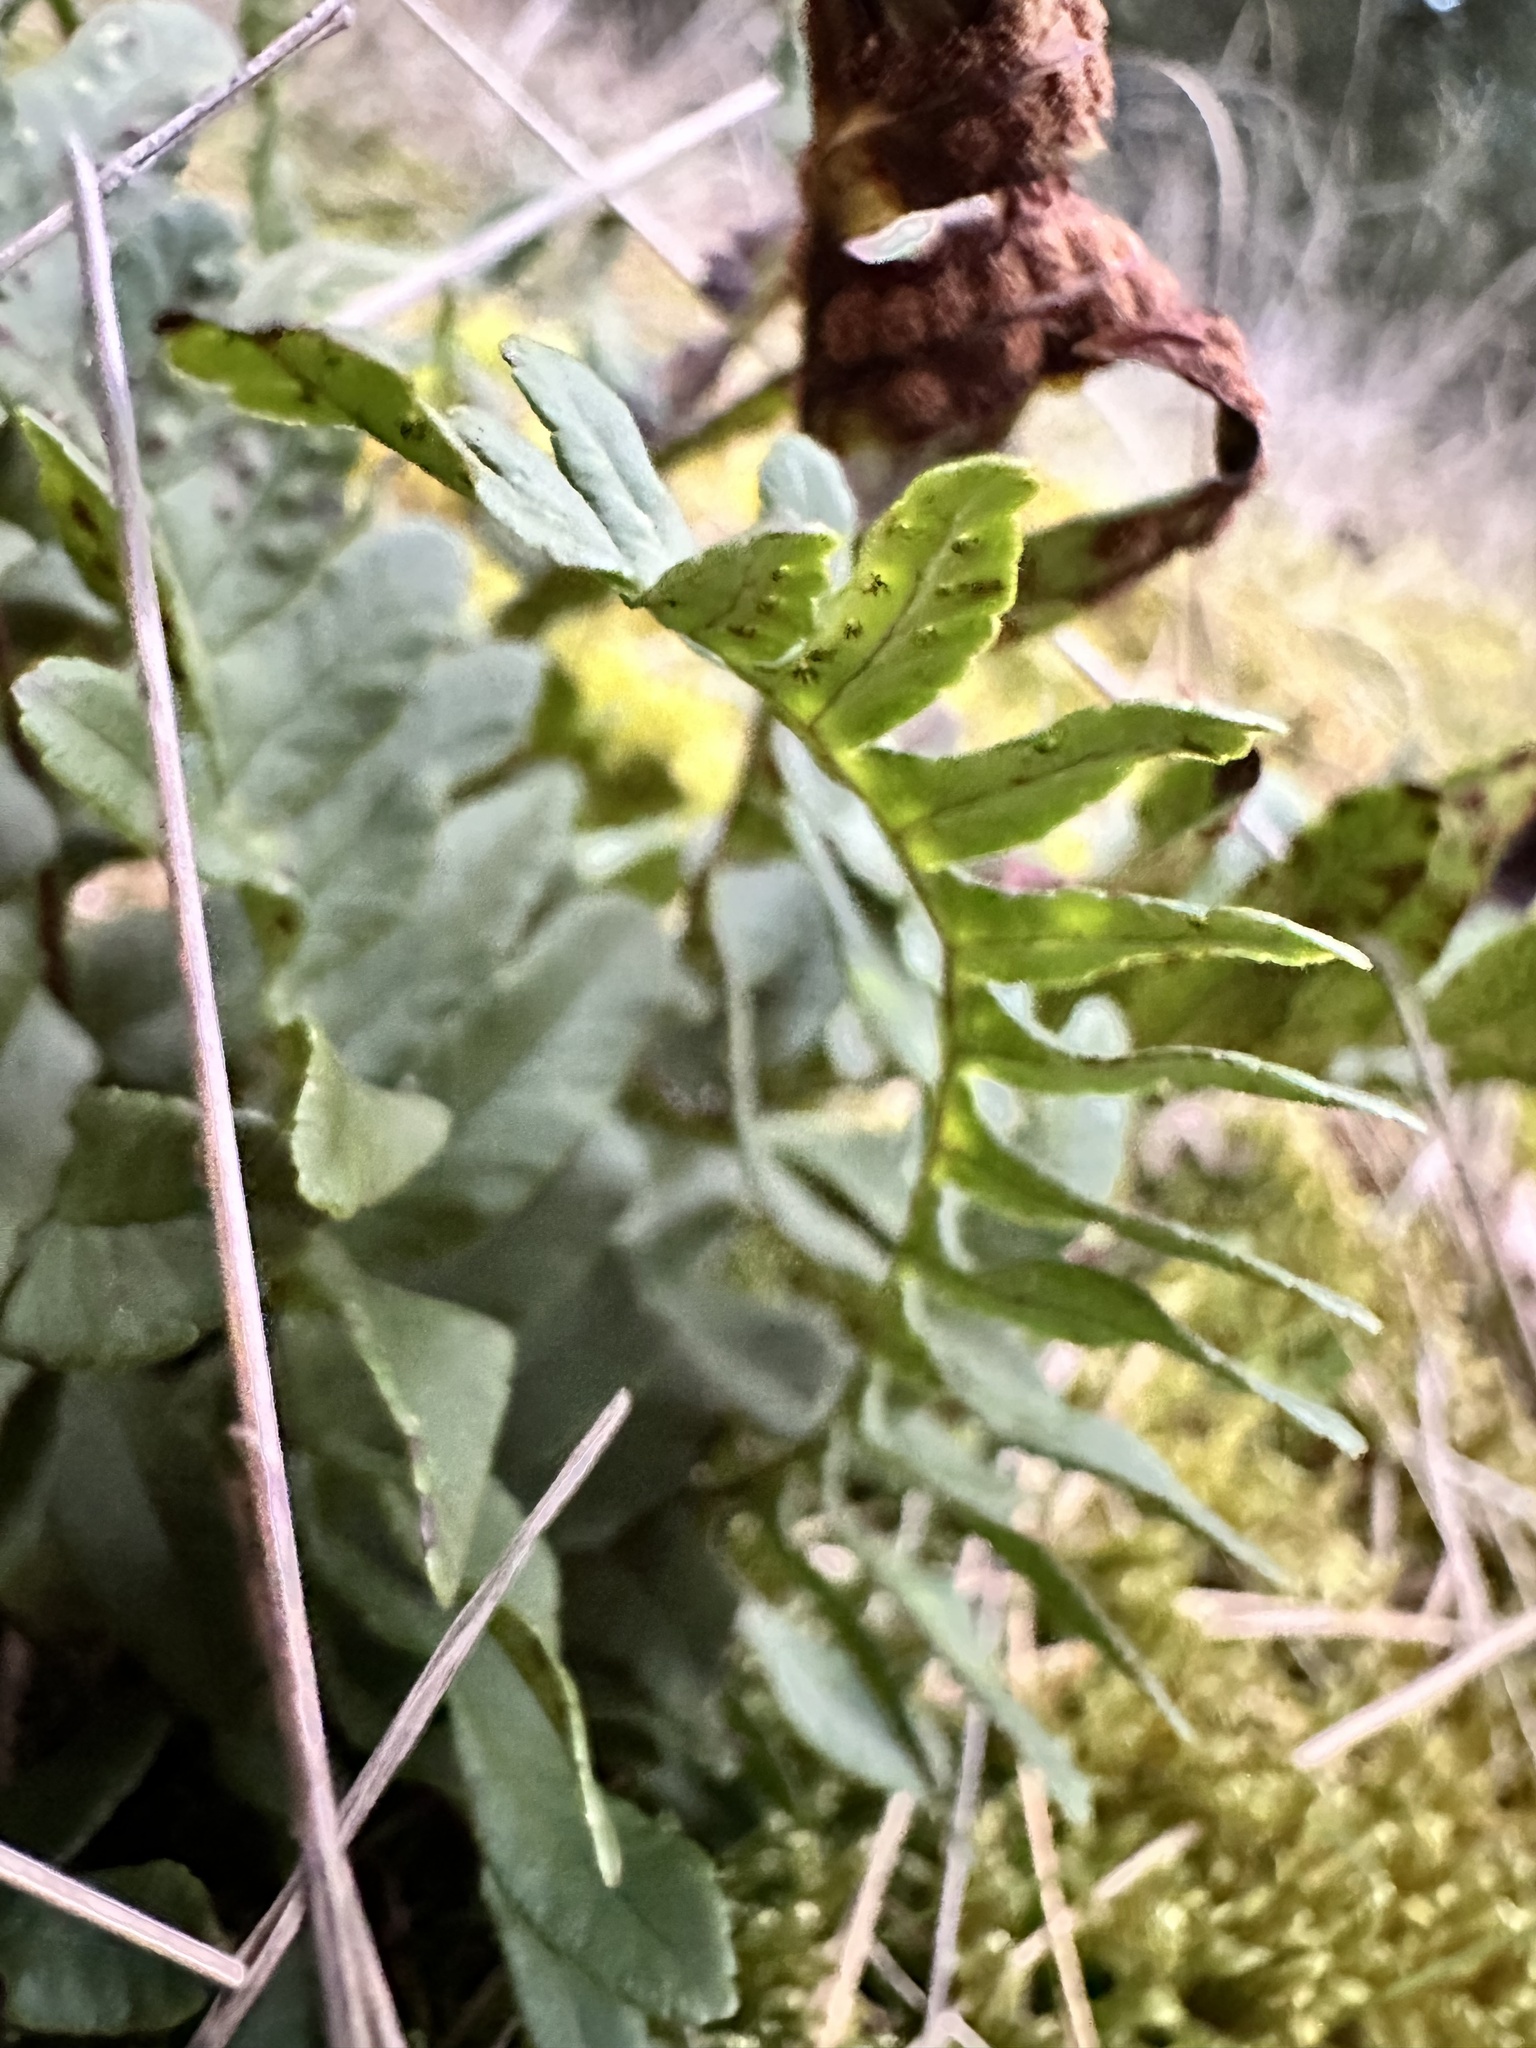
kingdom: Plantae
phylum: Tracheophyta
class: Polypodiopsida
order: Polypodiales
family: Polypodiaceae
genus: Polypodium
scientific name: Polypodium vulgare
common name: Common polypody
